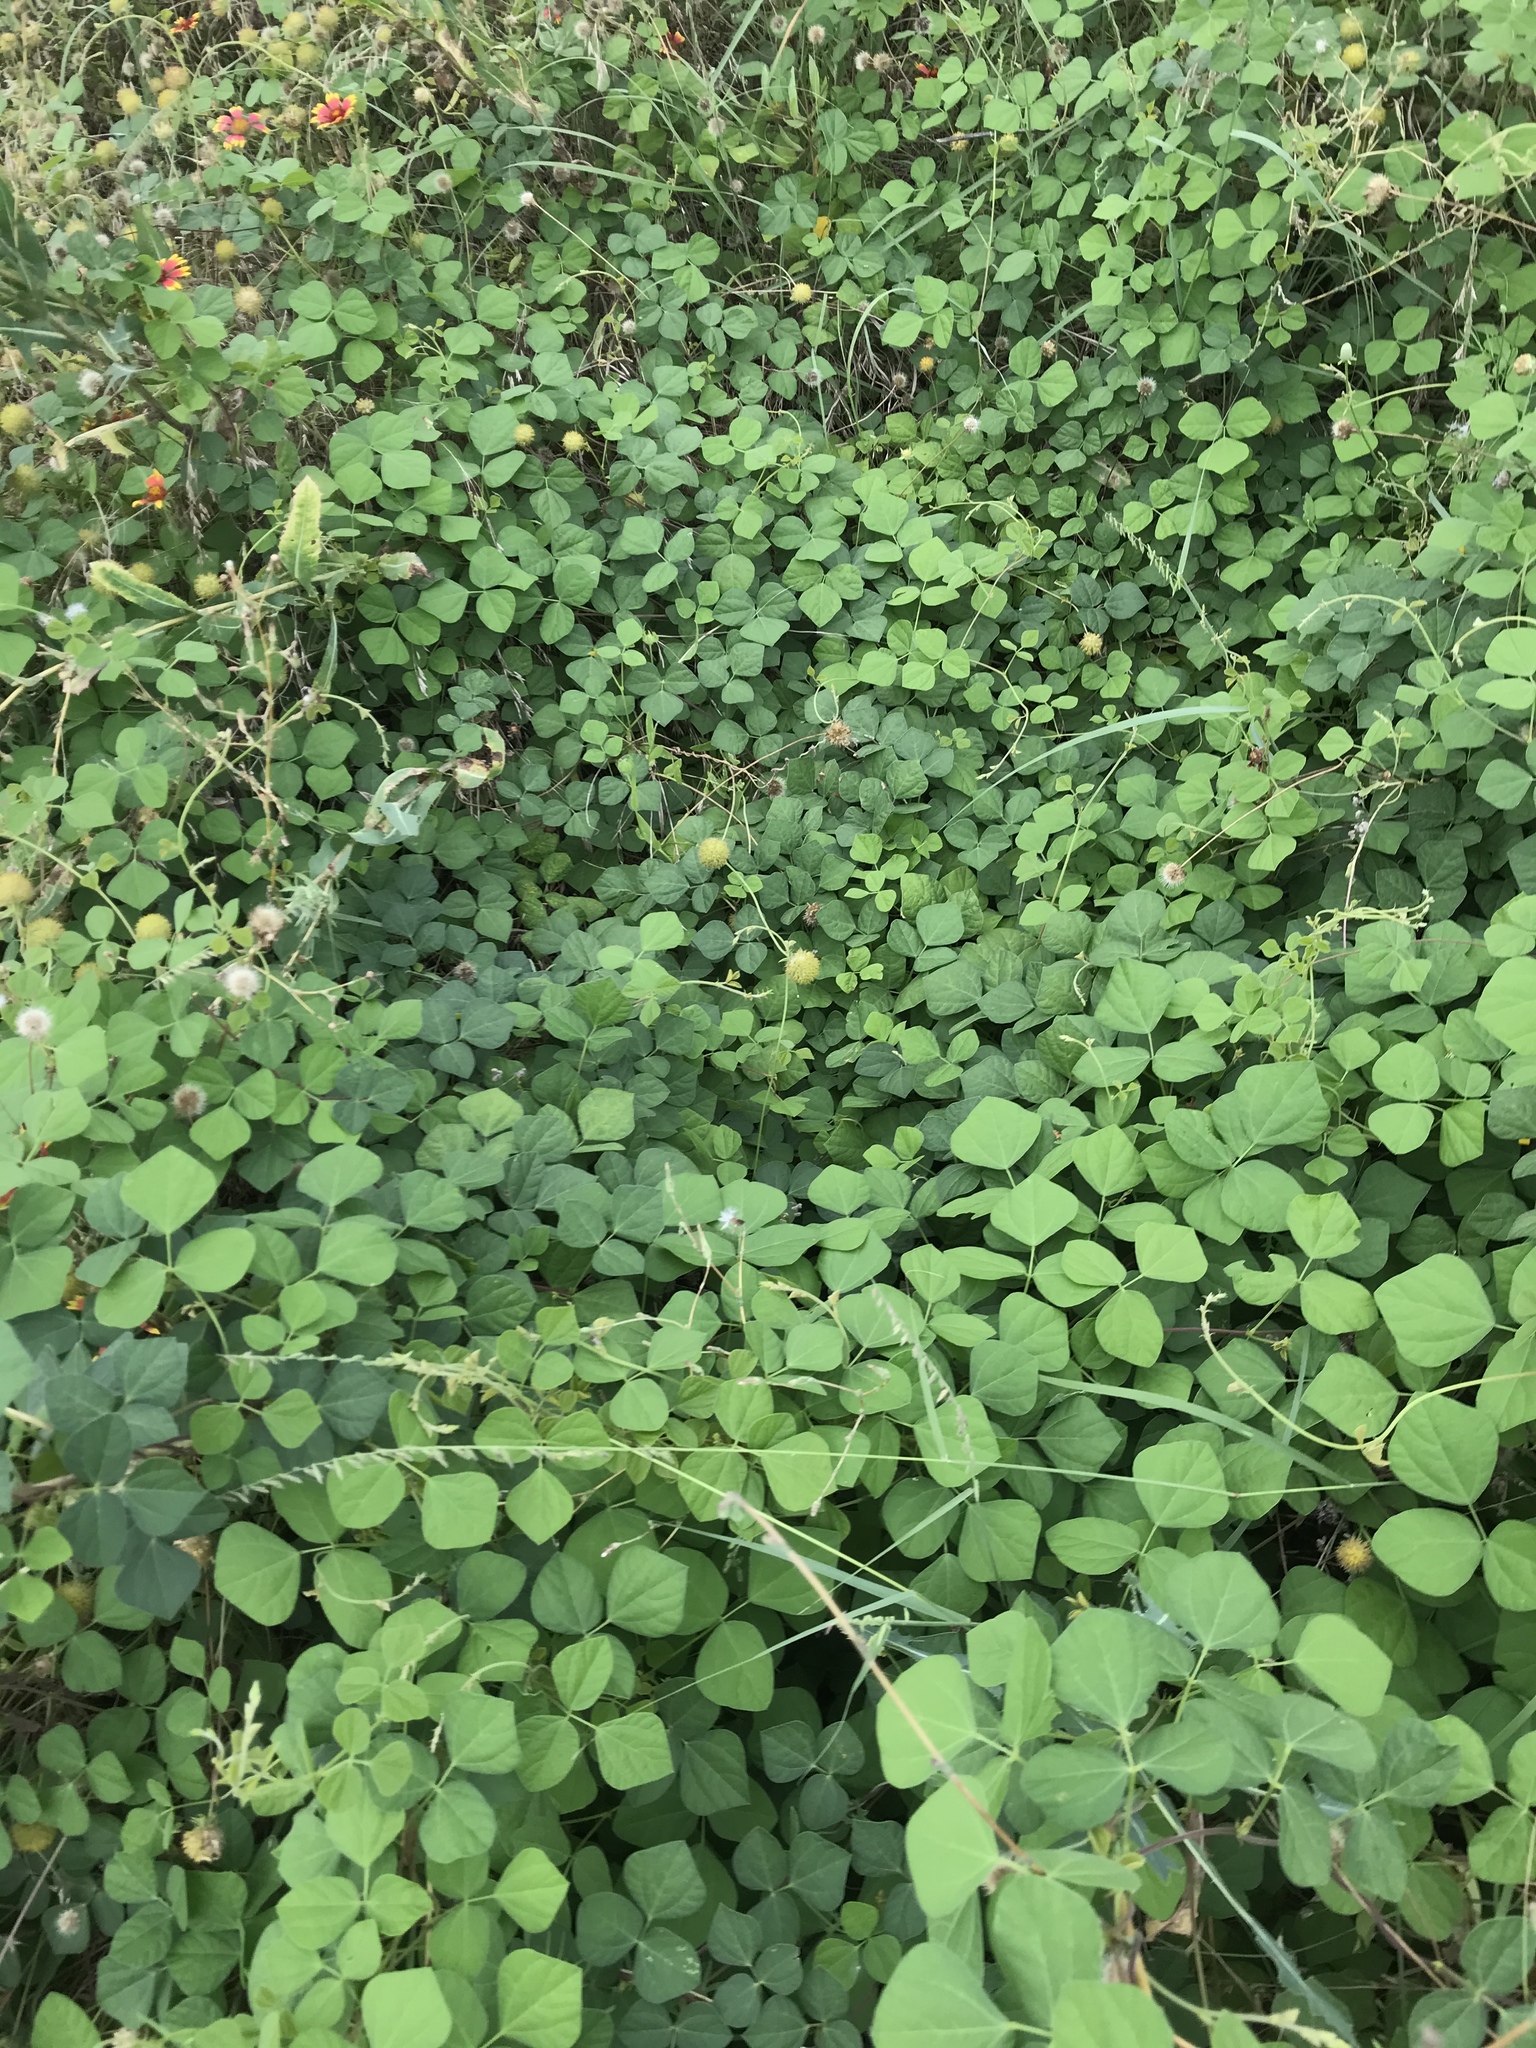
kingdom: Plantae
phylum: Tracheophyta
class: Magnoliopsida
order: Fabales
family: Fabaceae
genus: Rhynchosia
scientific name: Rhynchosia minima
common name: Least snoutbean
